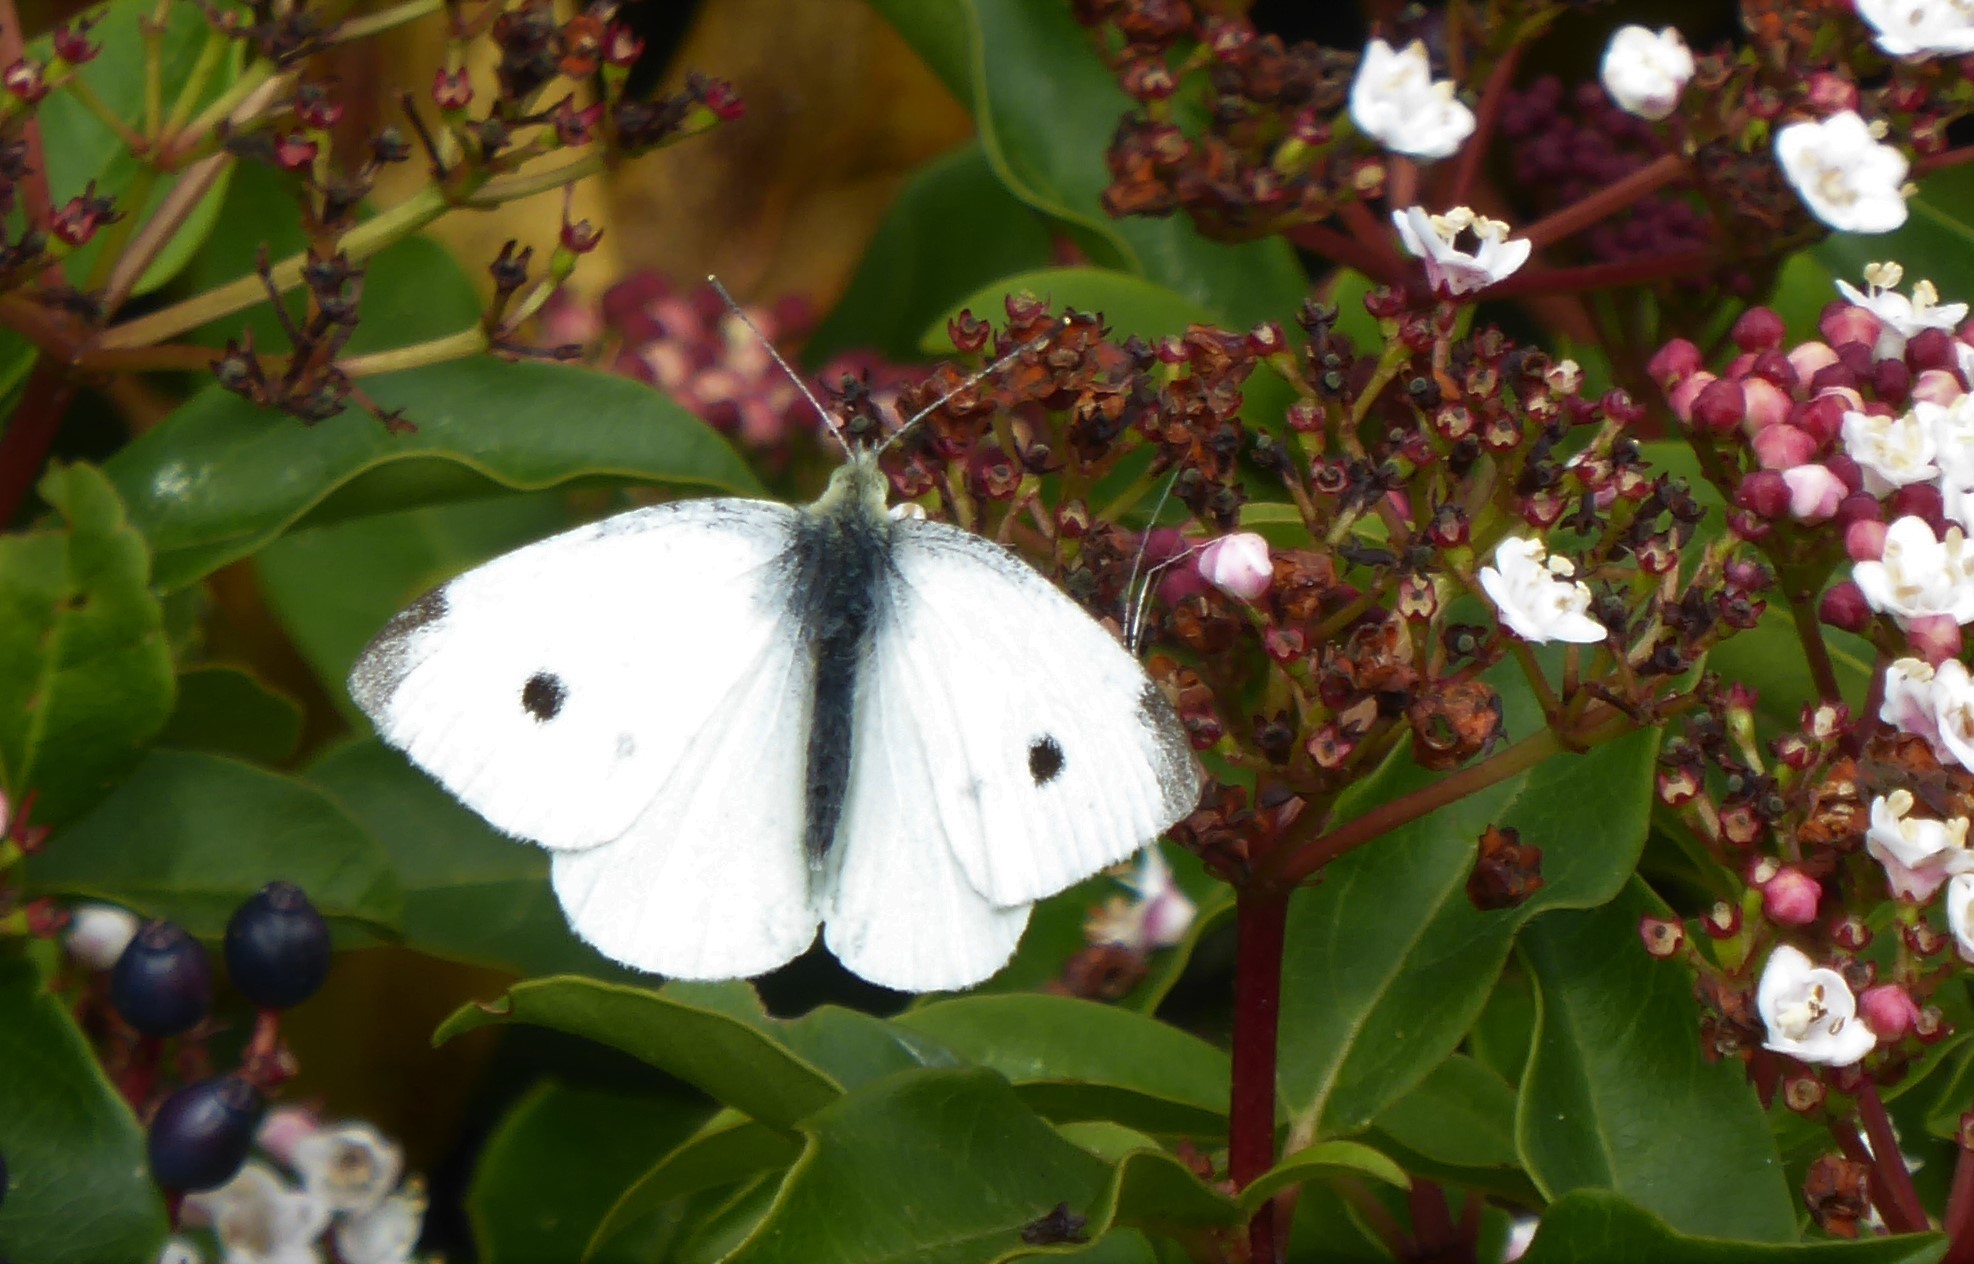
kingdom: Animalia
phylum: Arthropoda
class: Insecta
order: Lepidoptera
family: Pieridae
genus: Pieris
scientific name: Pieris rapae
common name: Small white
